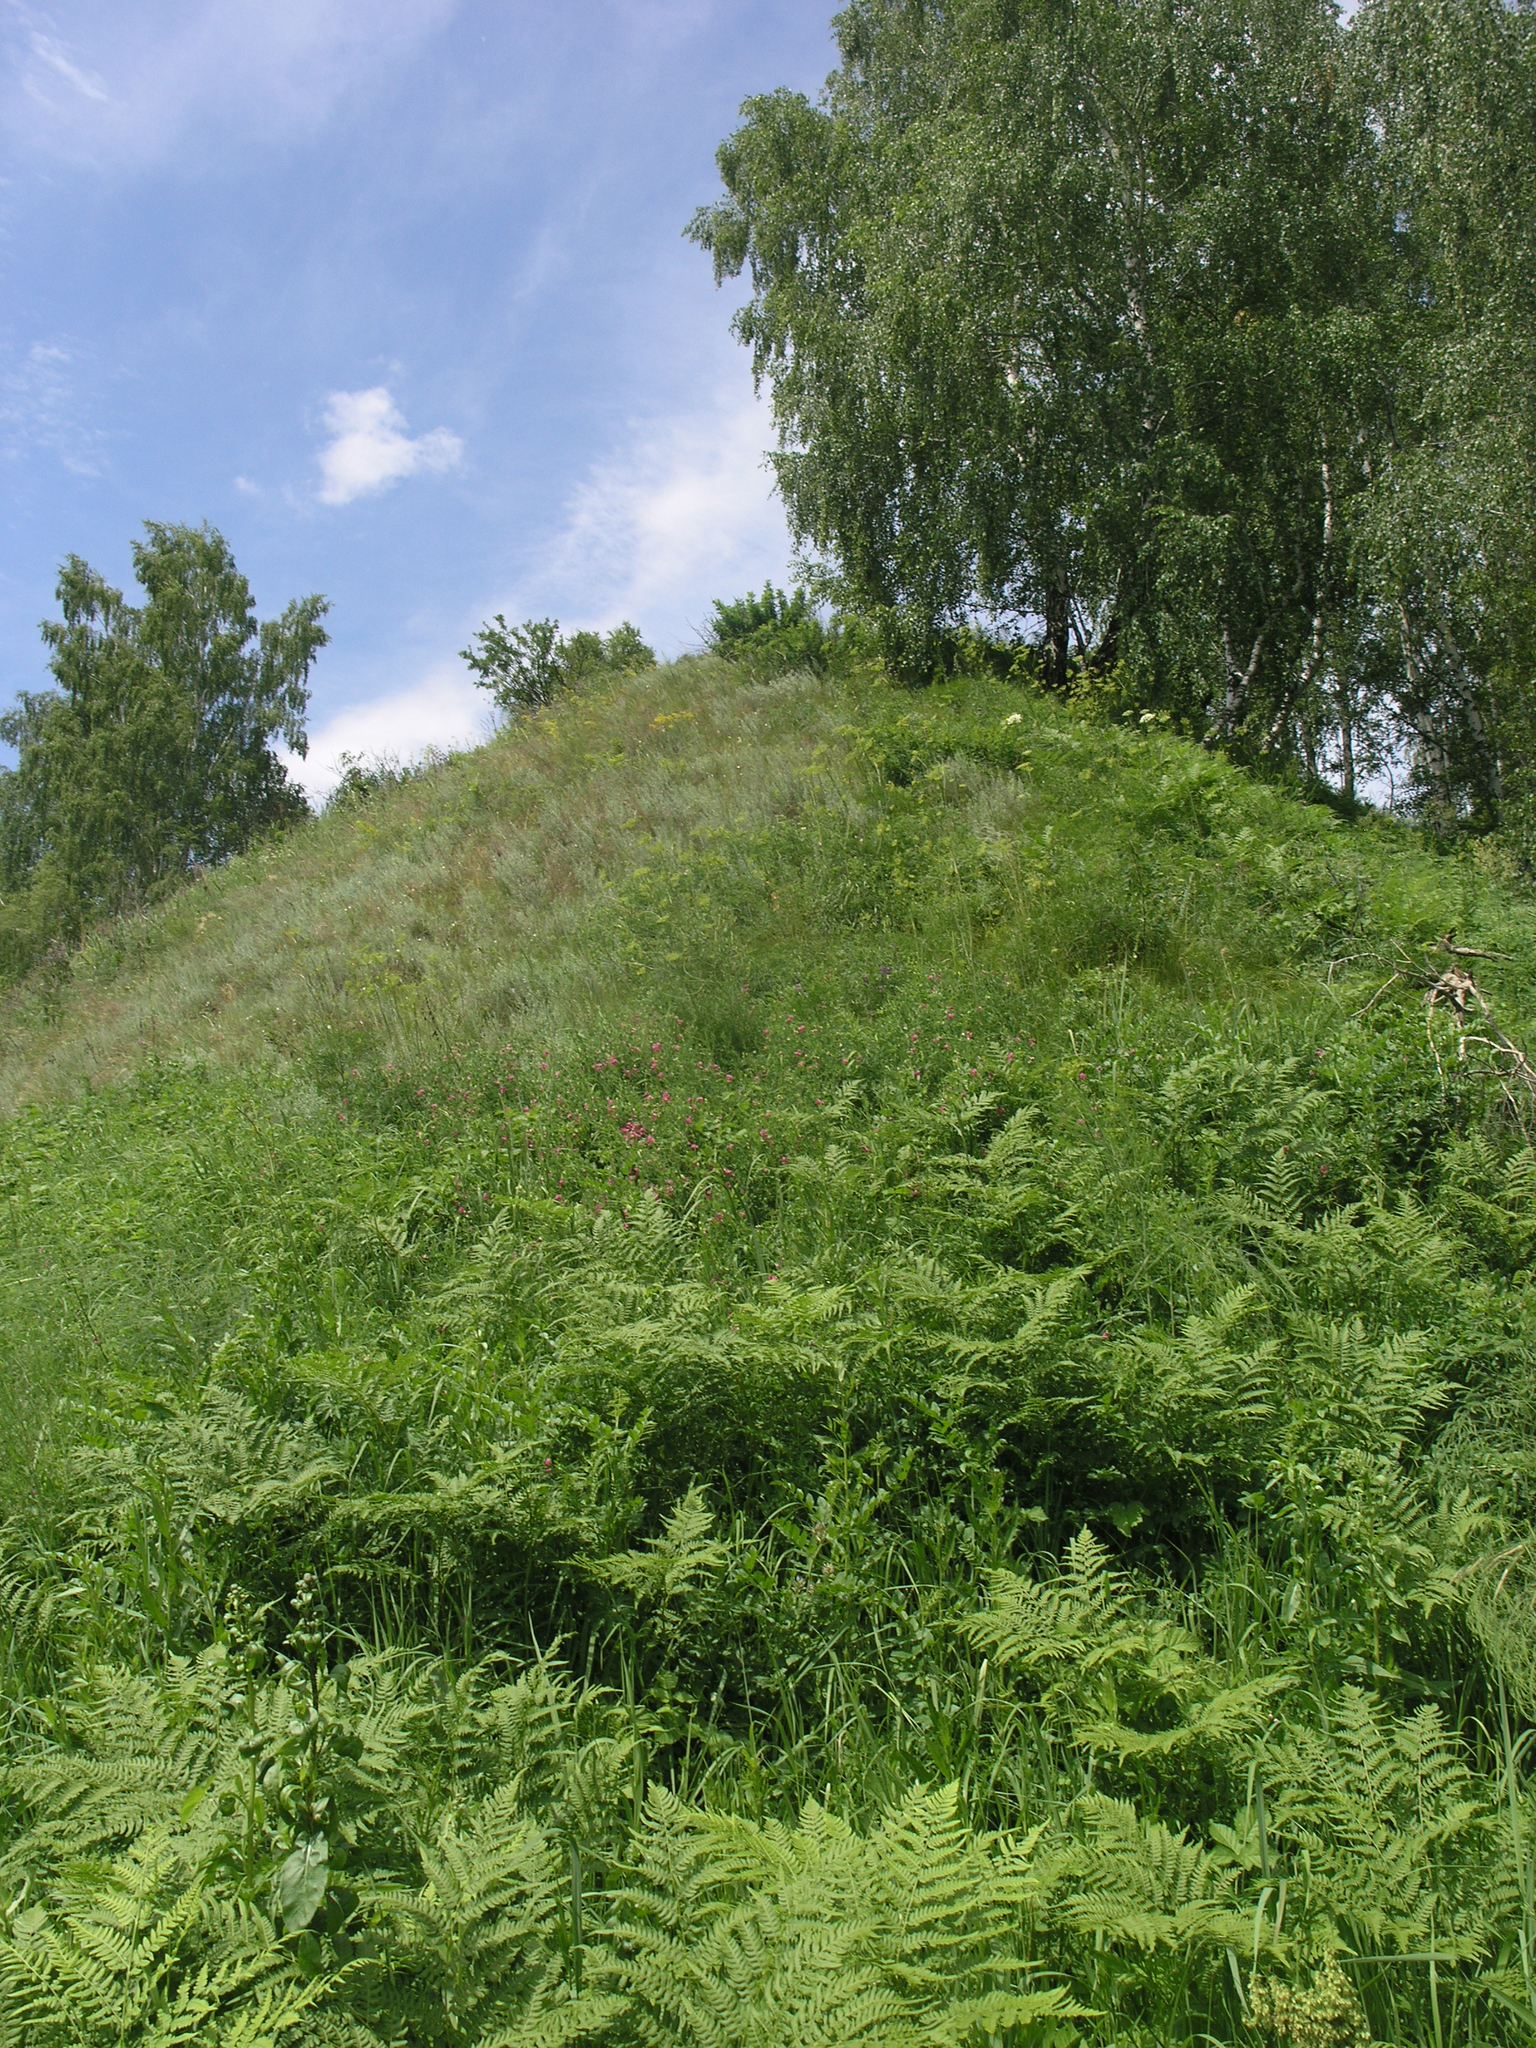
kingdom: Plantae
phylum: Tracheophyta
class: Polypodiopsida
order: Polypodiales
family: Dennstaedtiaceae
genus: Pteridium
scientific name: Pteridium aquilinum
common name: Bracken
